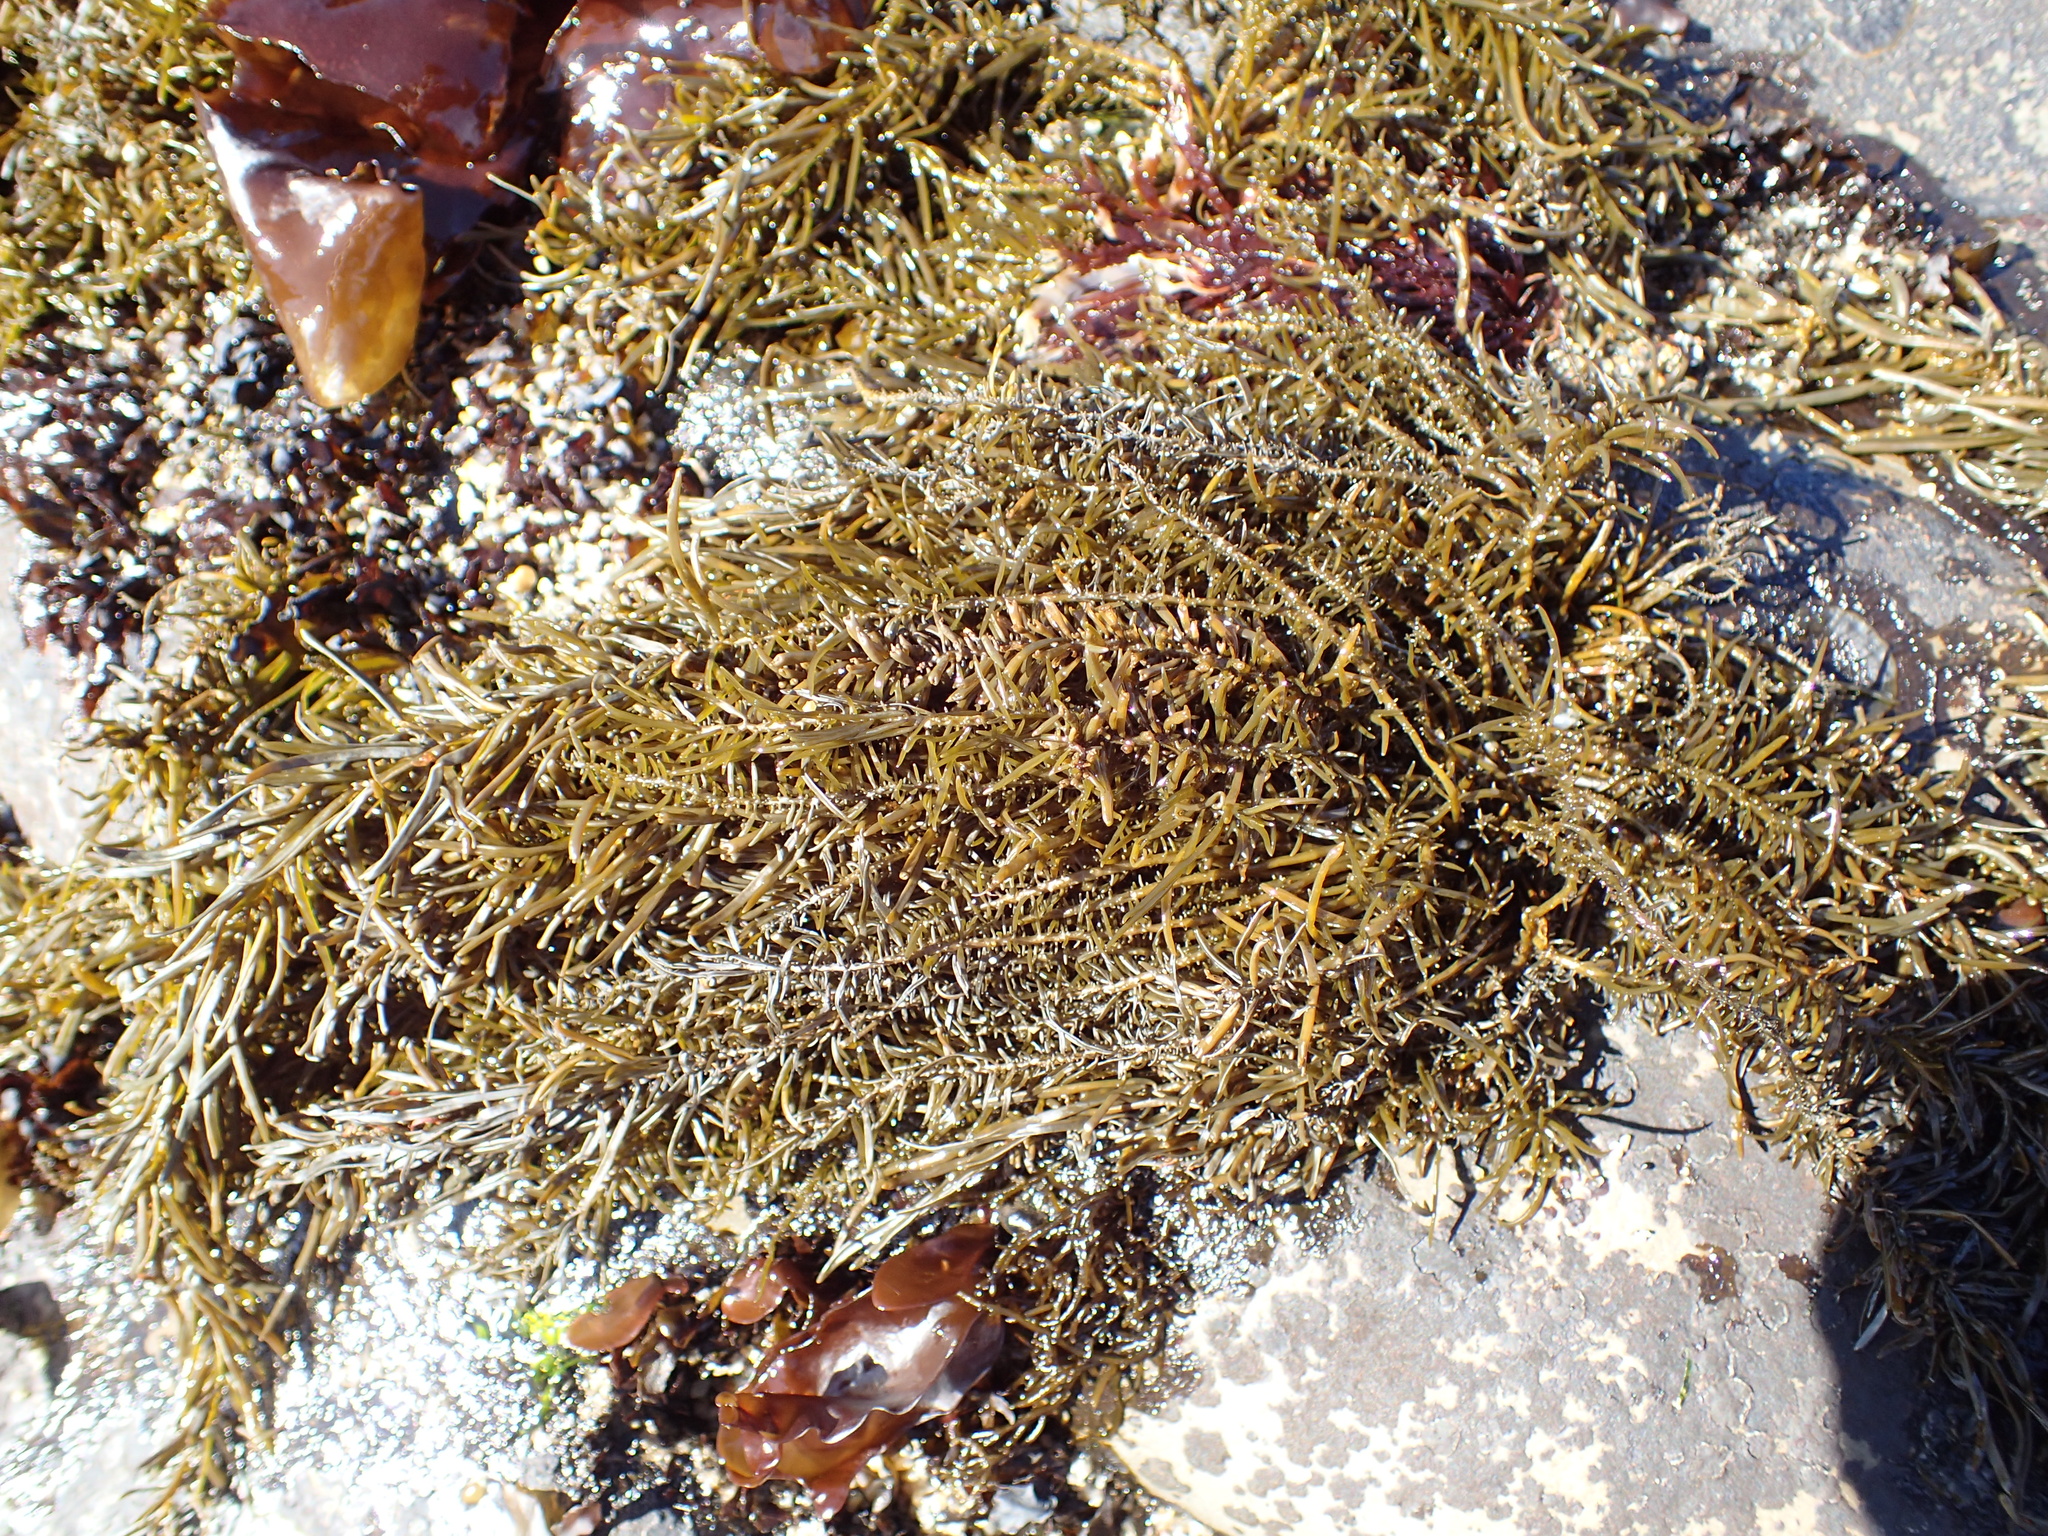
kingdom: Chromista
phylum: Ochrophyta
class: Phaeophyceae
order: Scytosiphonales
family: Scytosiphonaceae
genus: Analipus
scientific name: Analipus japonicus
